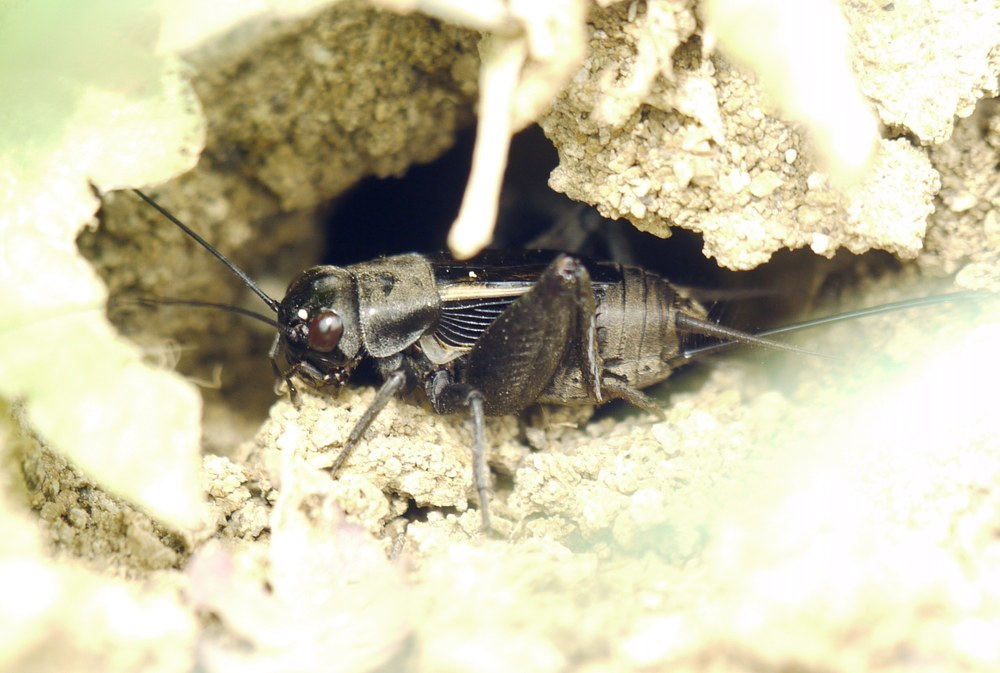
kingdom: Animalia
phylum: Arthropoda
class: Insecta
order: Orthoptera
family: Gryllidae
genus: Melanogryllus
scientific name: Melanogryllus desertus
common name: Desert cricket
